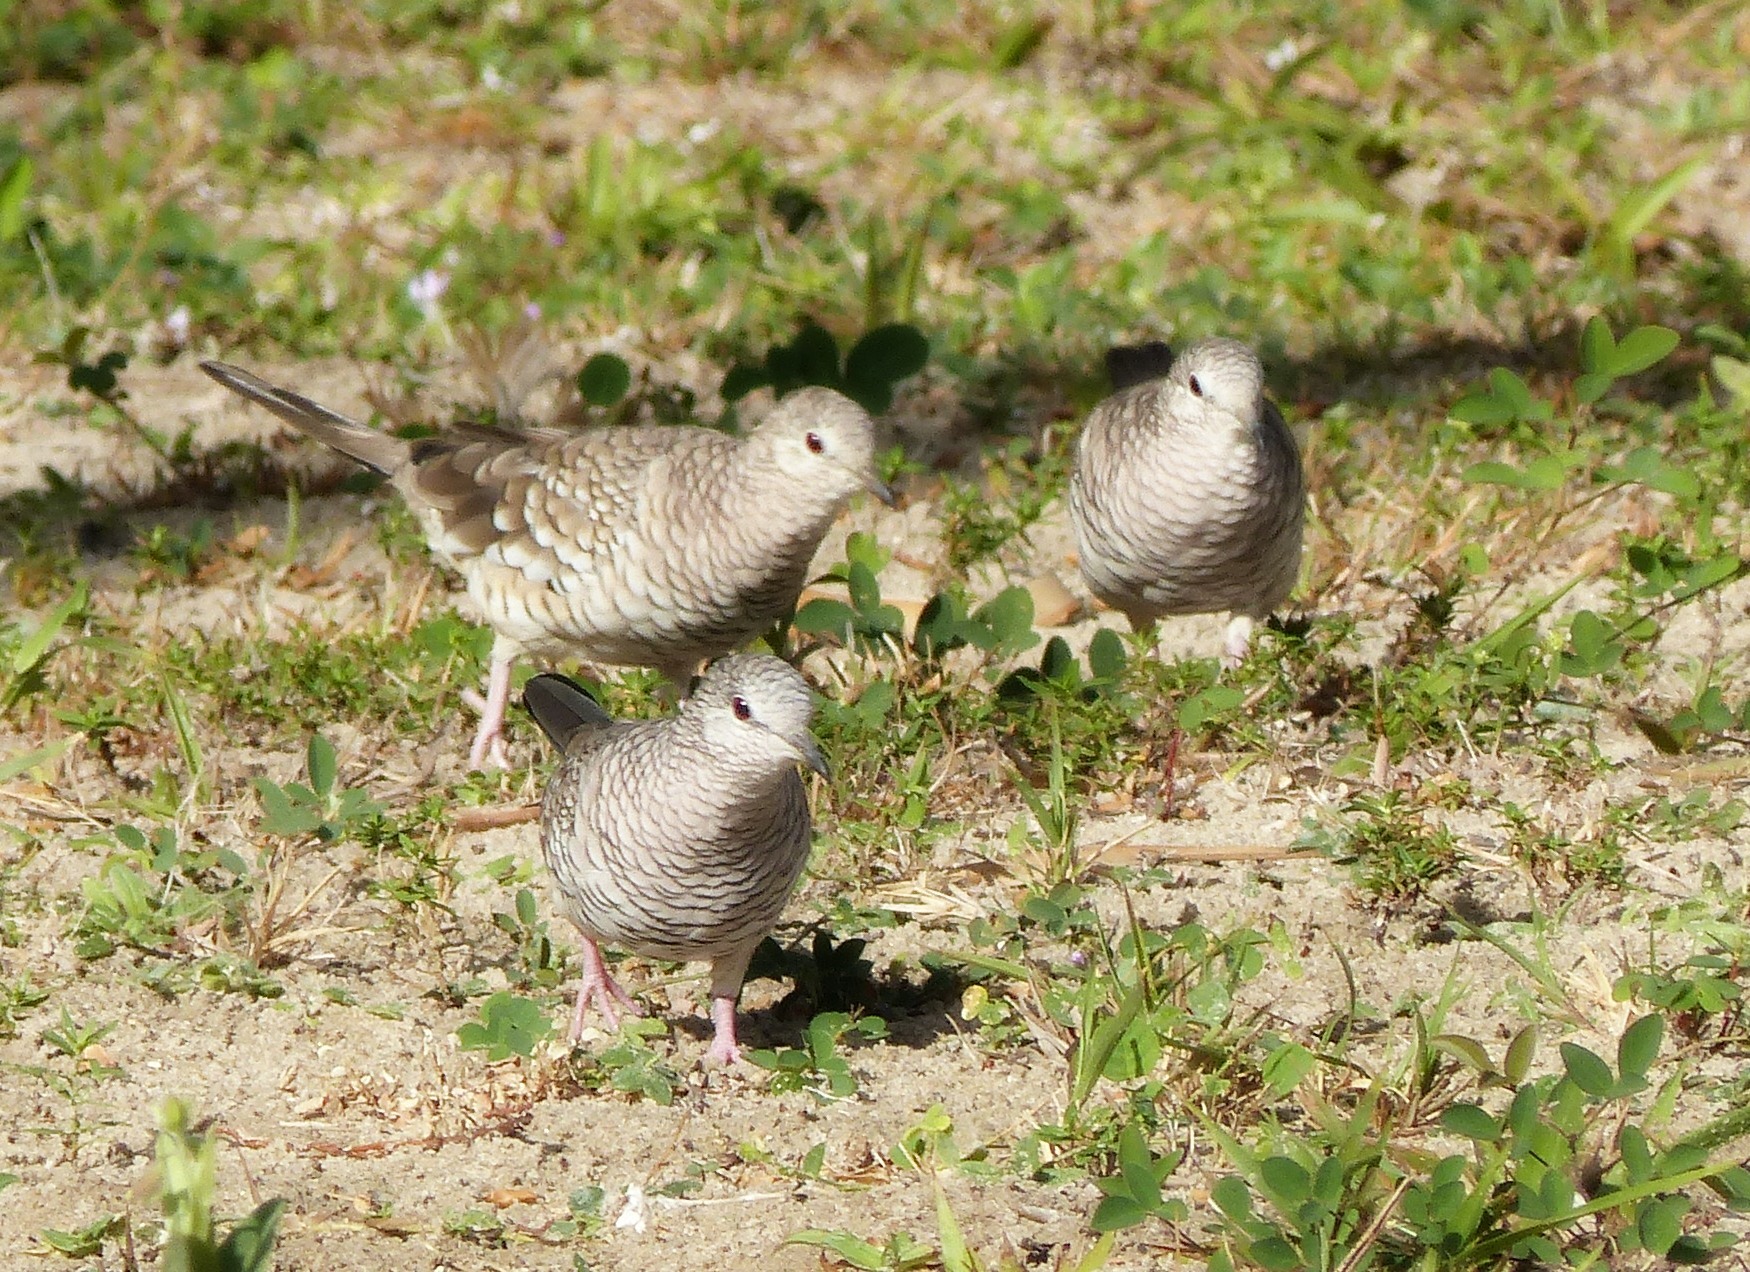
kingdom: Animalia
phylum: Chordata
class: Aves
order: Columbiformes
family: Columbidae
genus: Columbina
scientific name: Columbina squammata
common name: Scaled dove
